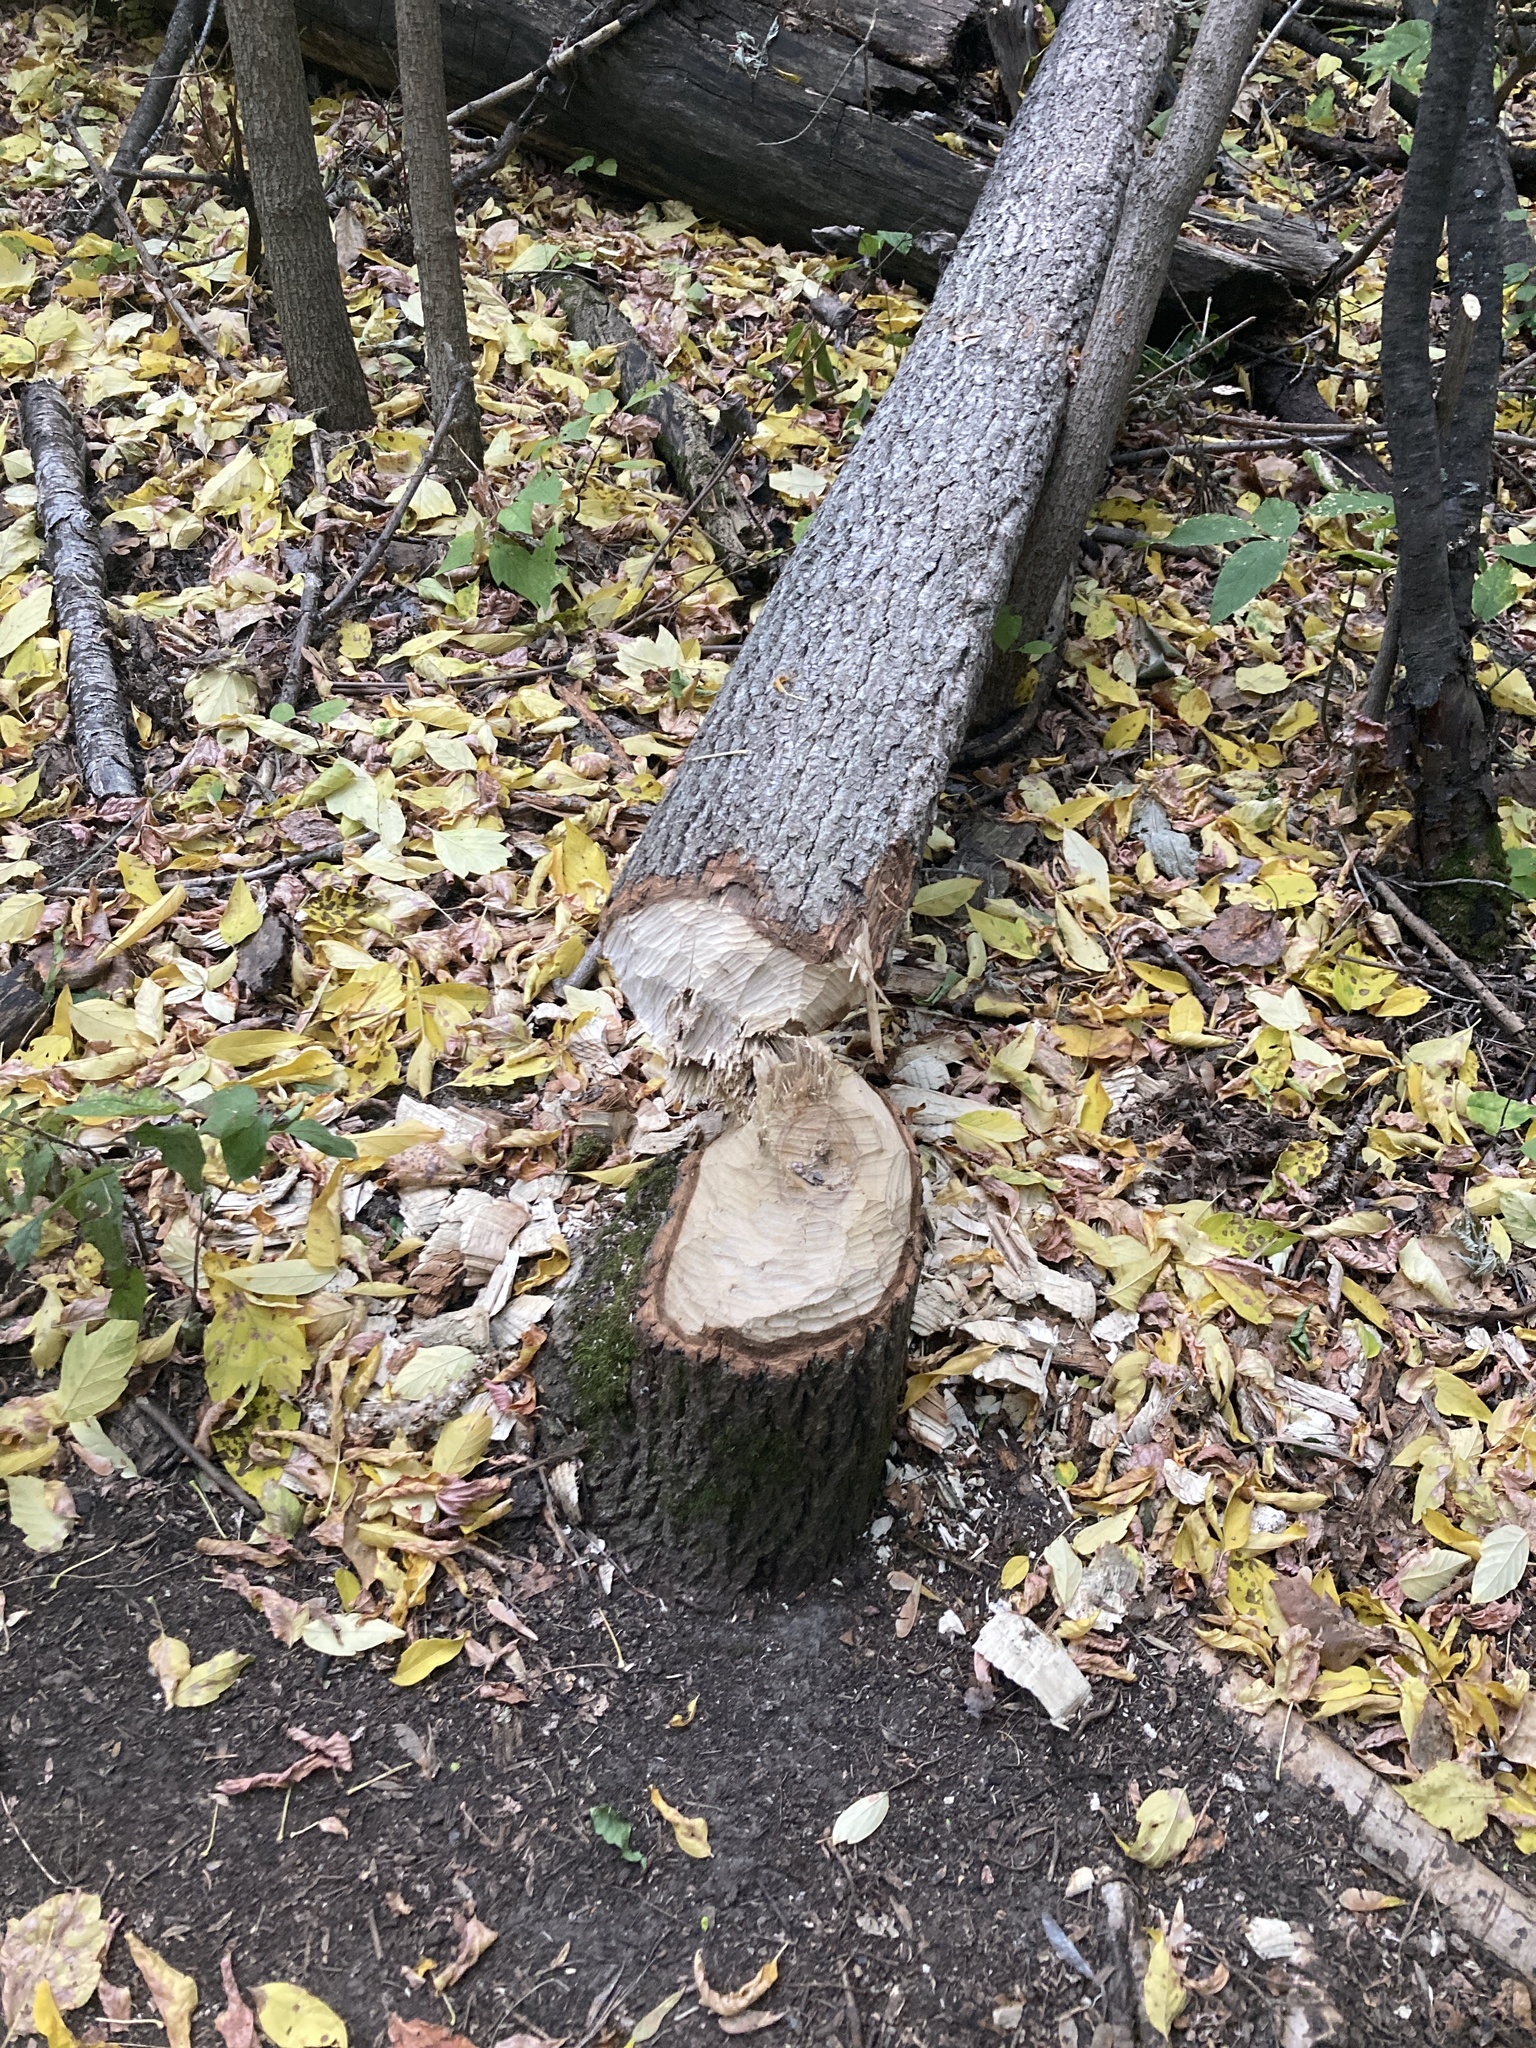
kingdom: Animalia
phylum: Chordata
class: Mammalia
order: Rodentia
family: Castoridae
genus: Castor
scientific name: Castor canadensis
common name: American beaver
